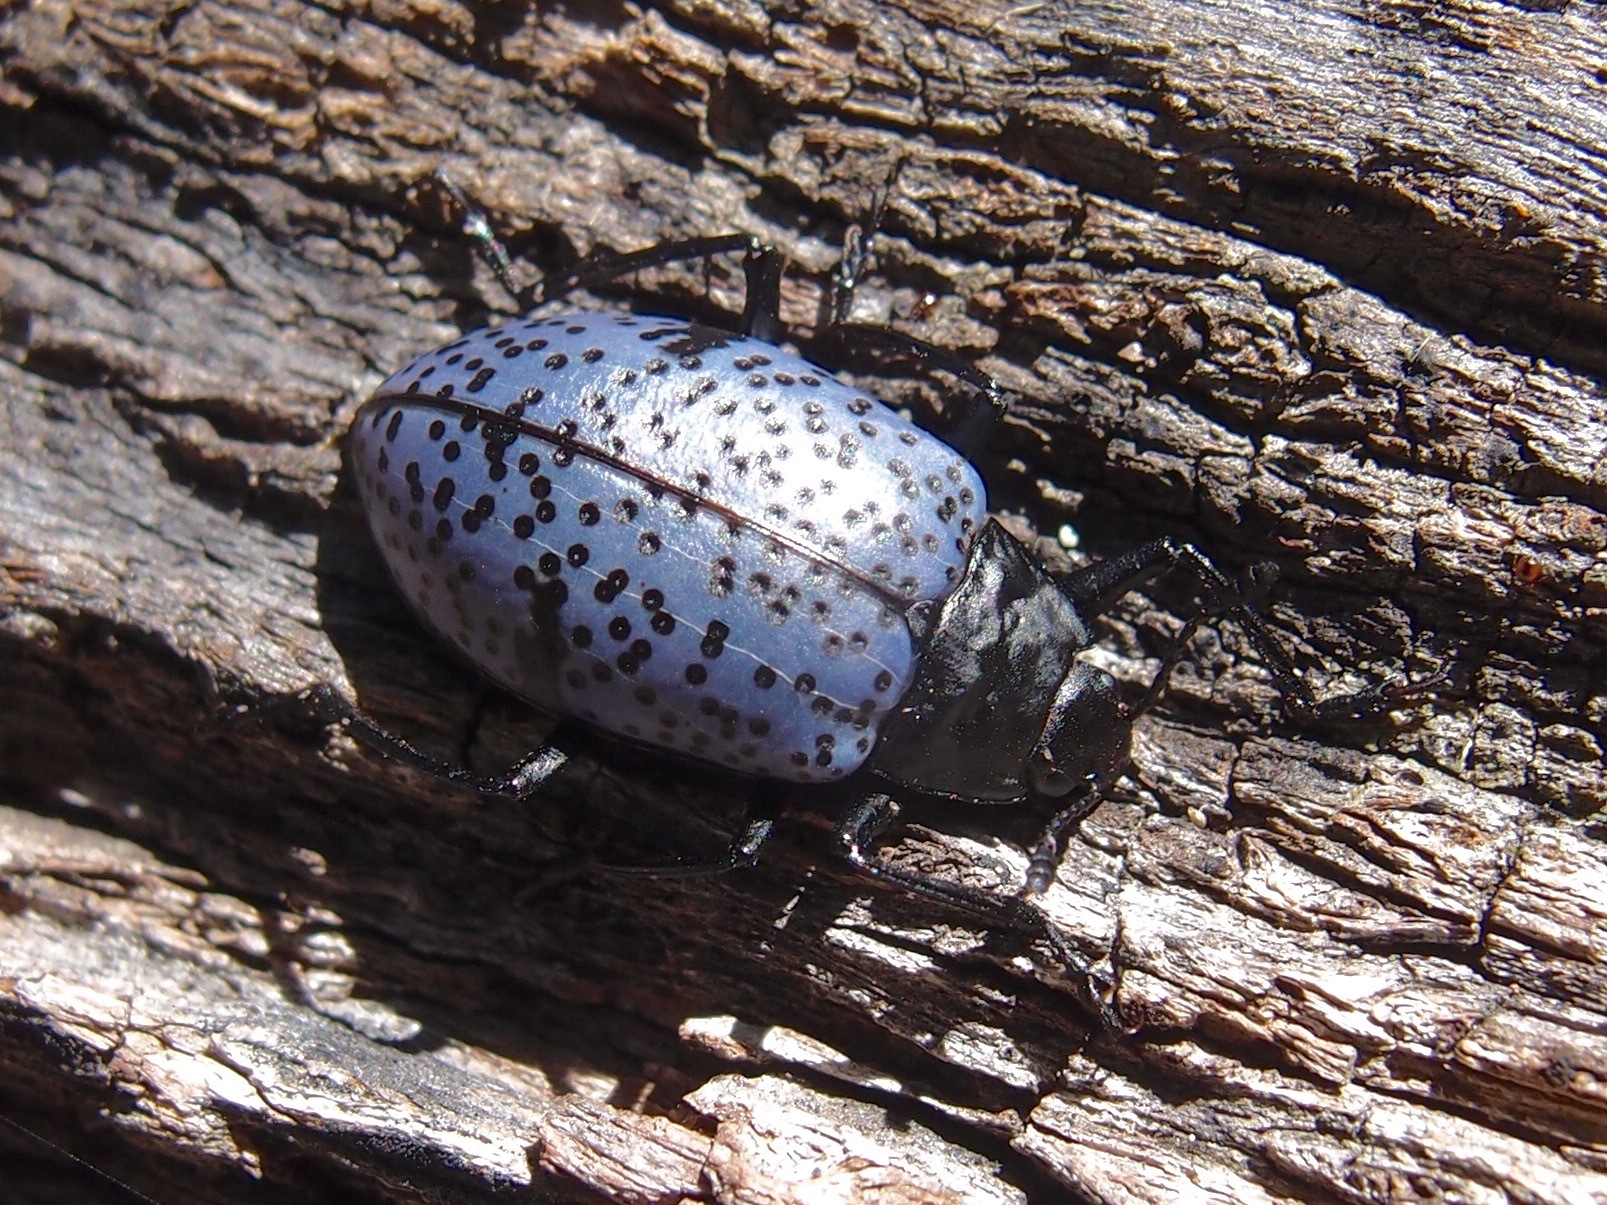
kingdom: Animalia
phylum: Arthropoda
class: Insecta
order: Coleoptera
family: Erotylidae
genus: Gibbifer
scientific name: Gibbifer californicus
